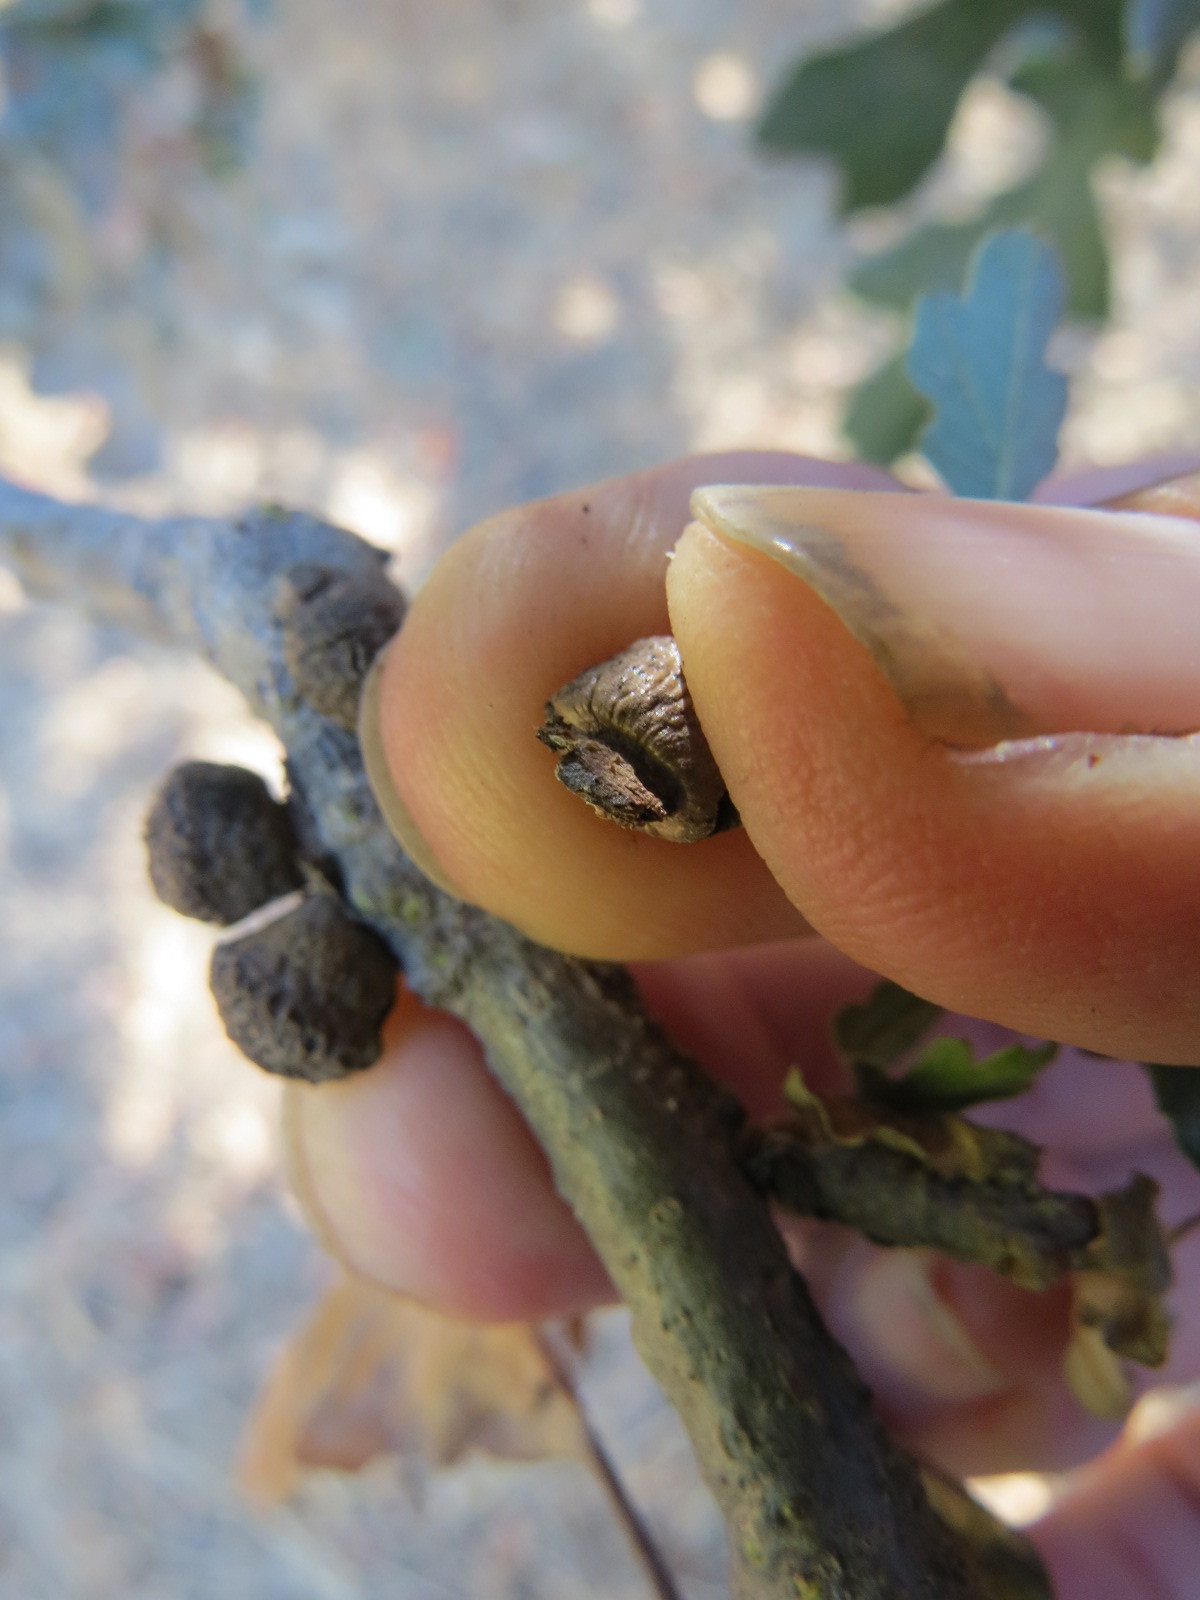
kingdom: Animalia
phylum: Arthropoda
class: Insecta
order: Hymenoptera
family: Cynipidae
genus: Disholcaspis
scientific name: Disholcaspis
